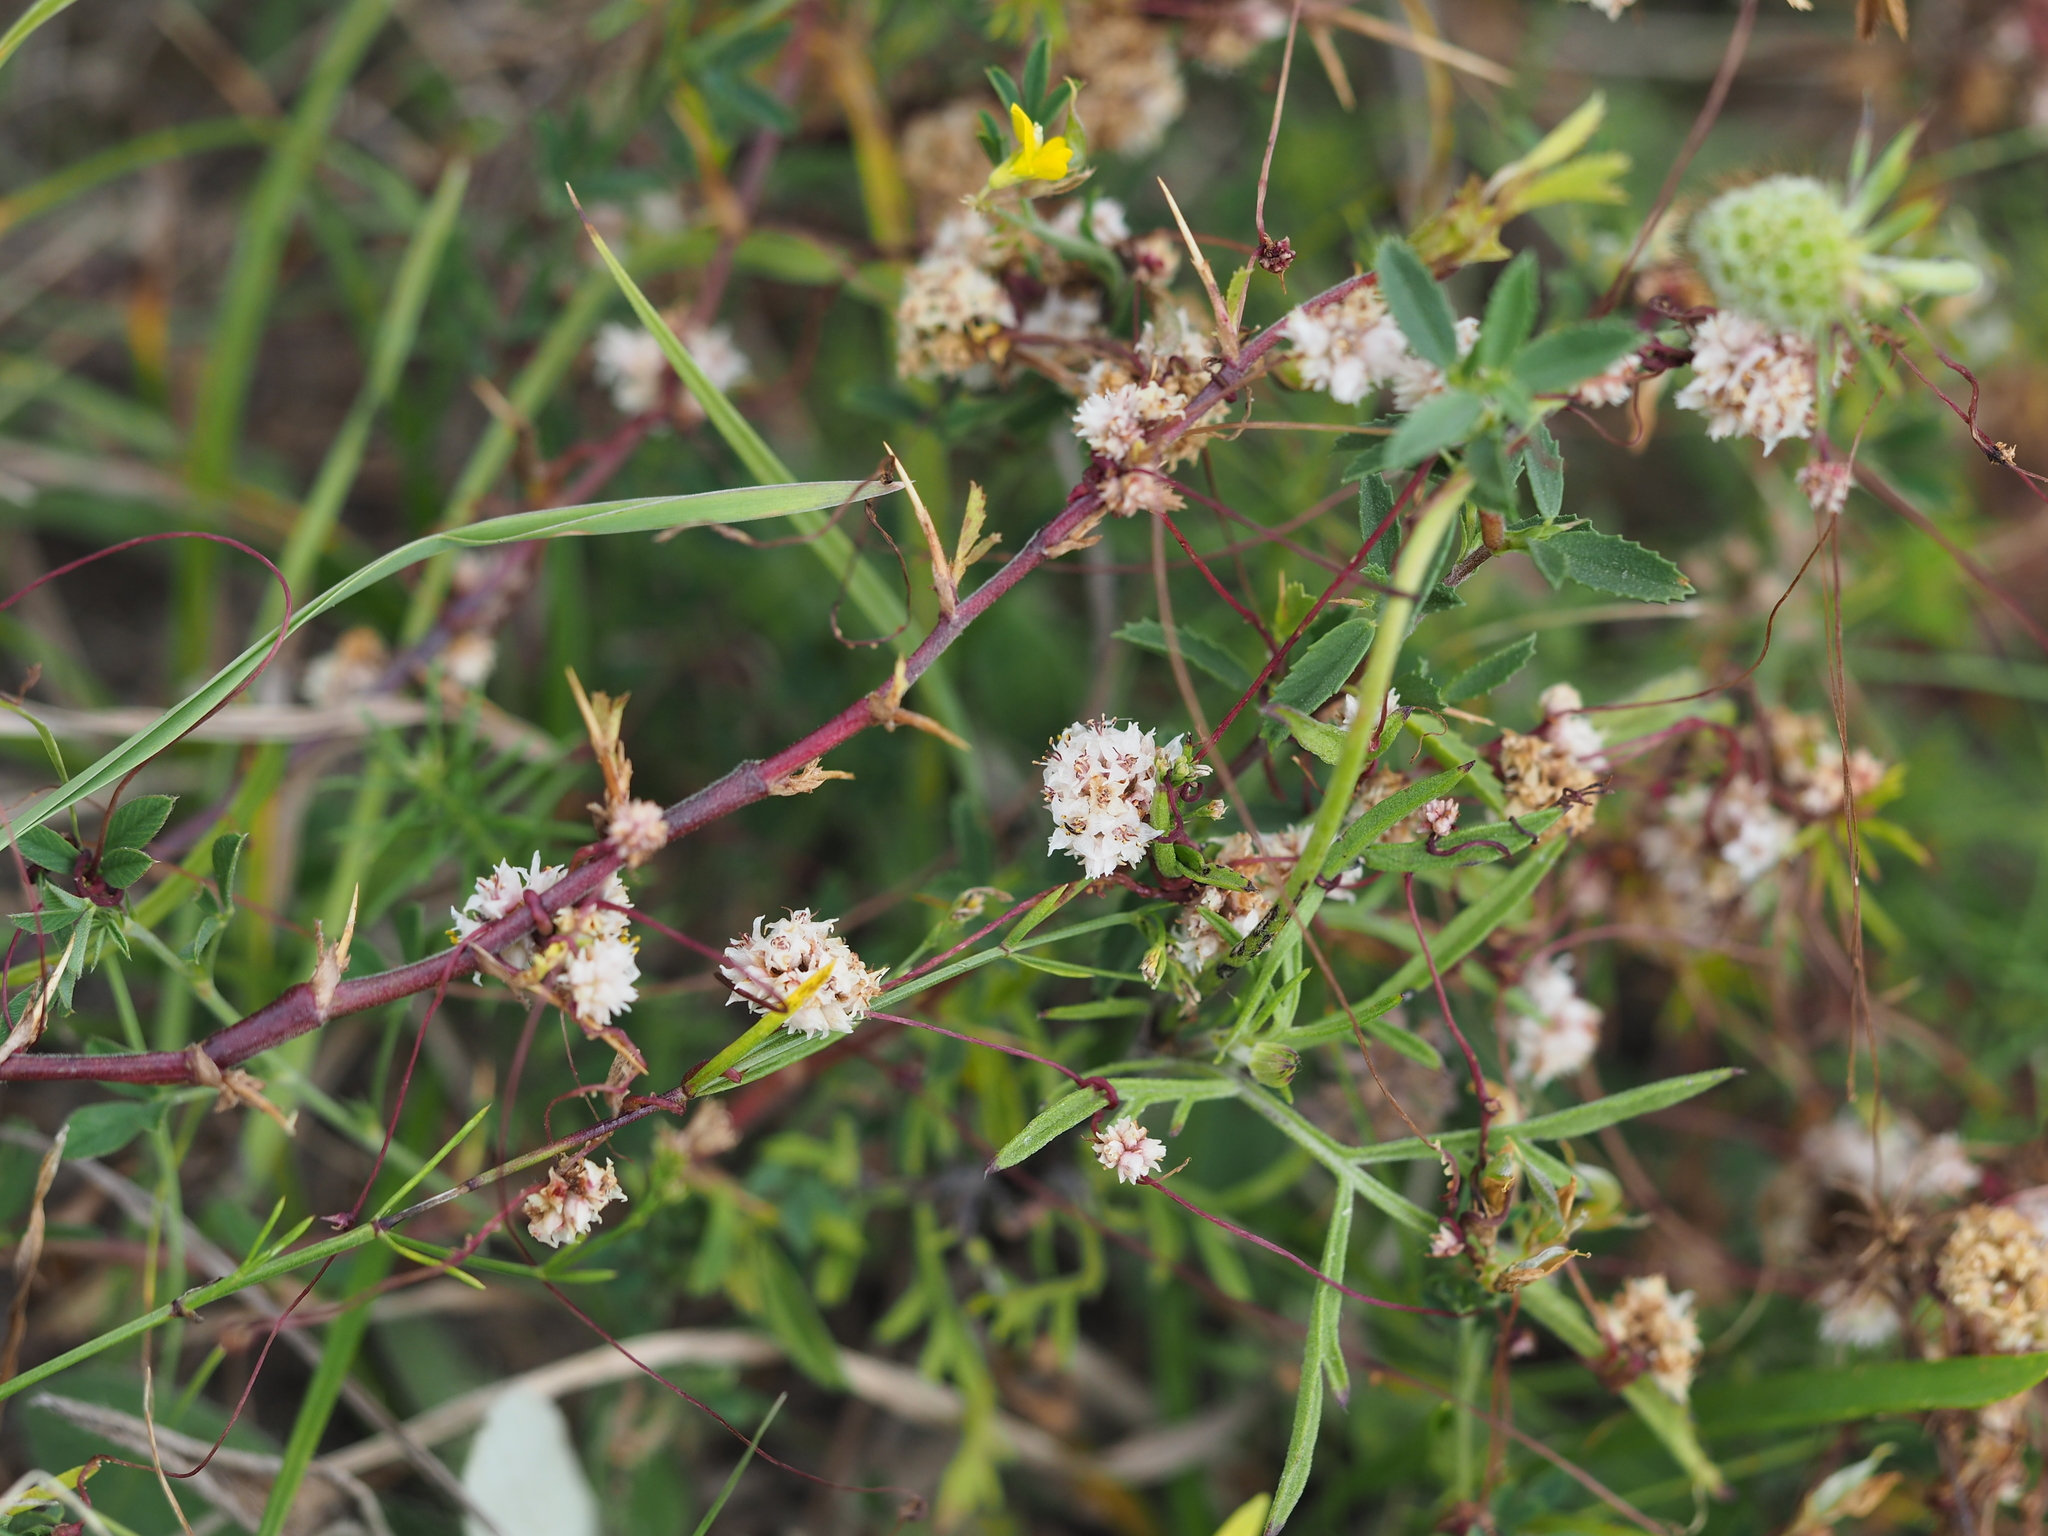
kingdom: Plantae
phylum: Tracheophyta
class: Magnoliopsida
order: Solanales
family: Convolvulaceae
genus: Cuscuta
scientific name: Cuscuta epithymum
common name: Clover dodder
